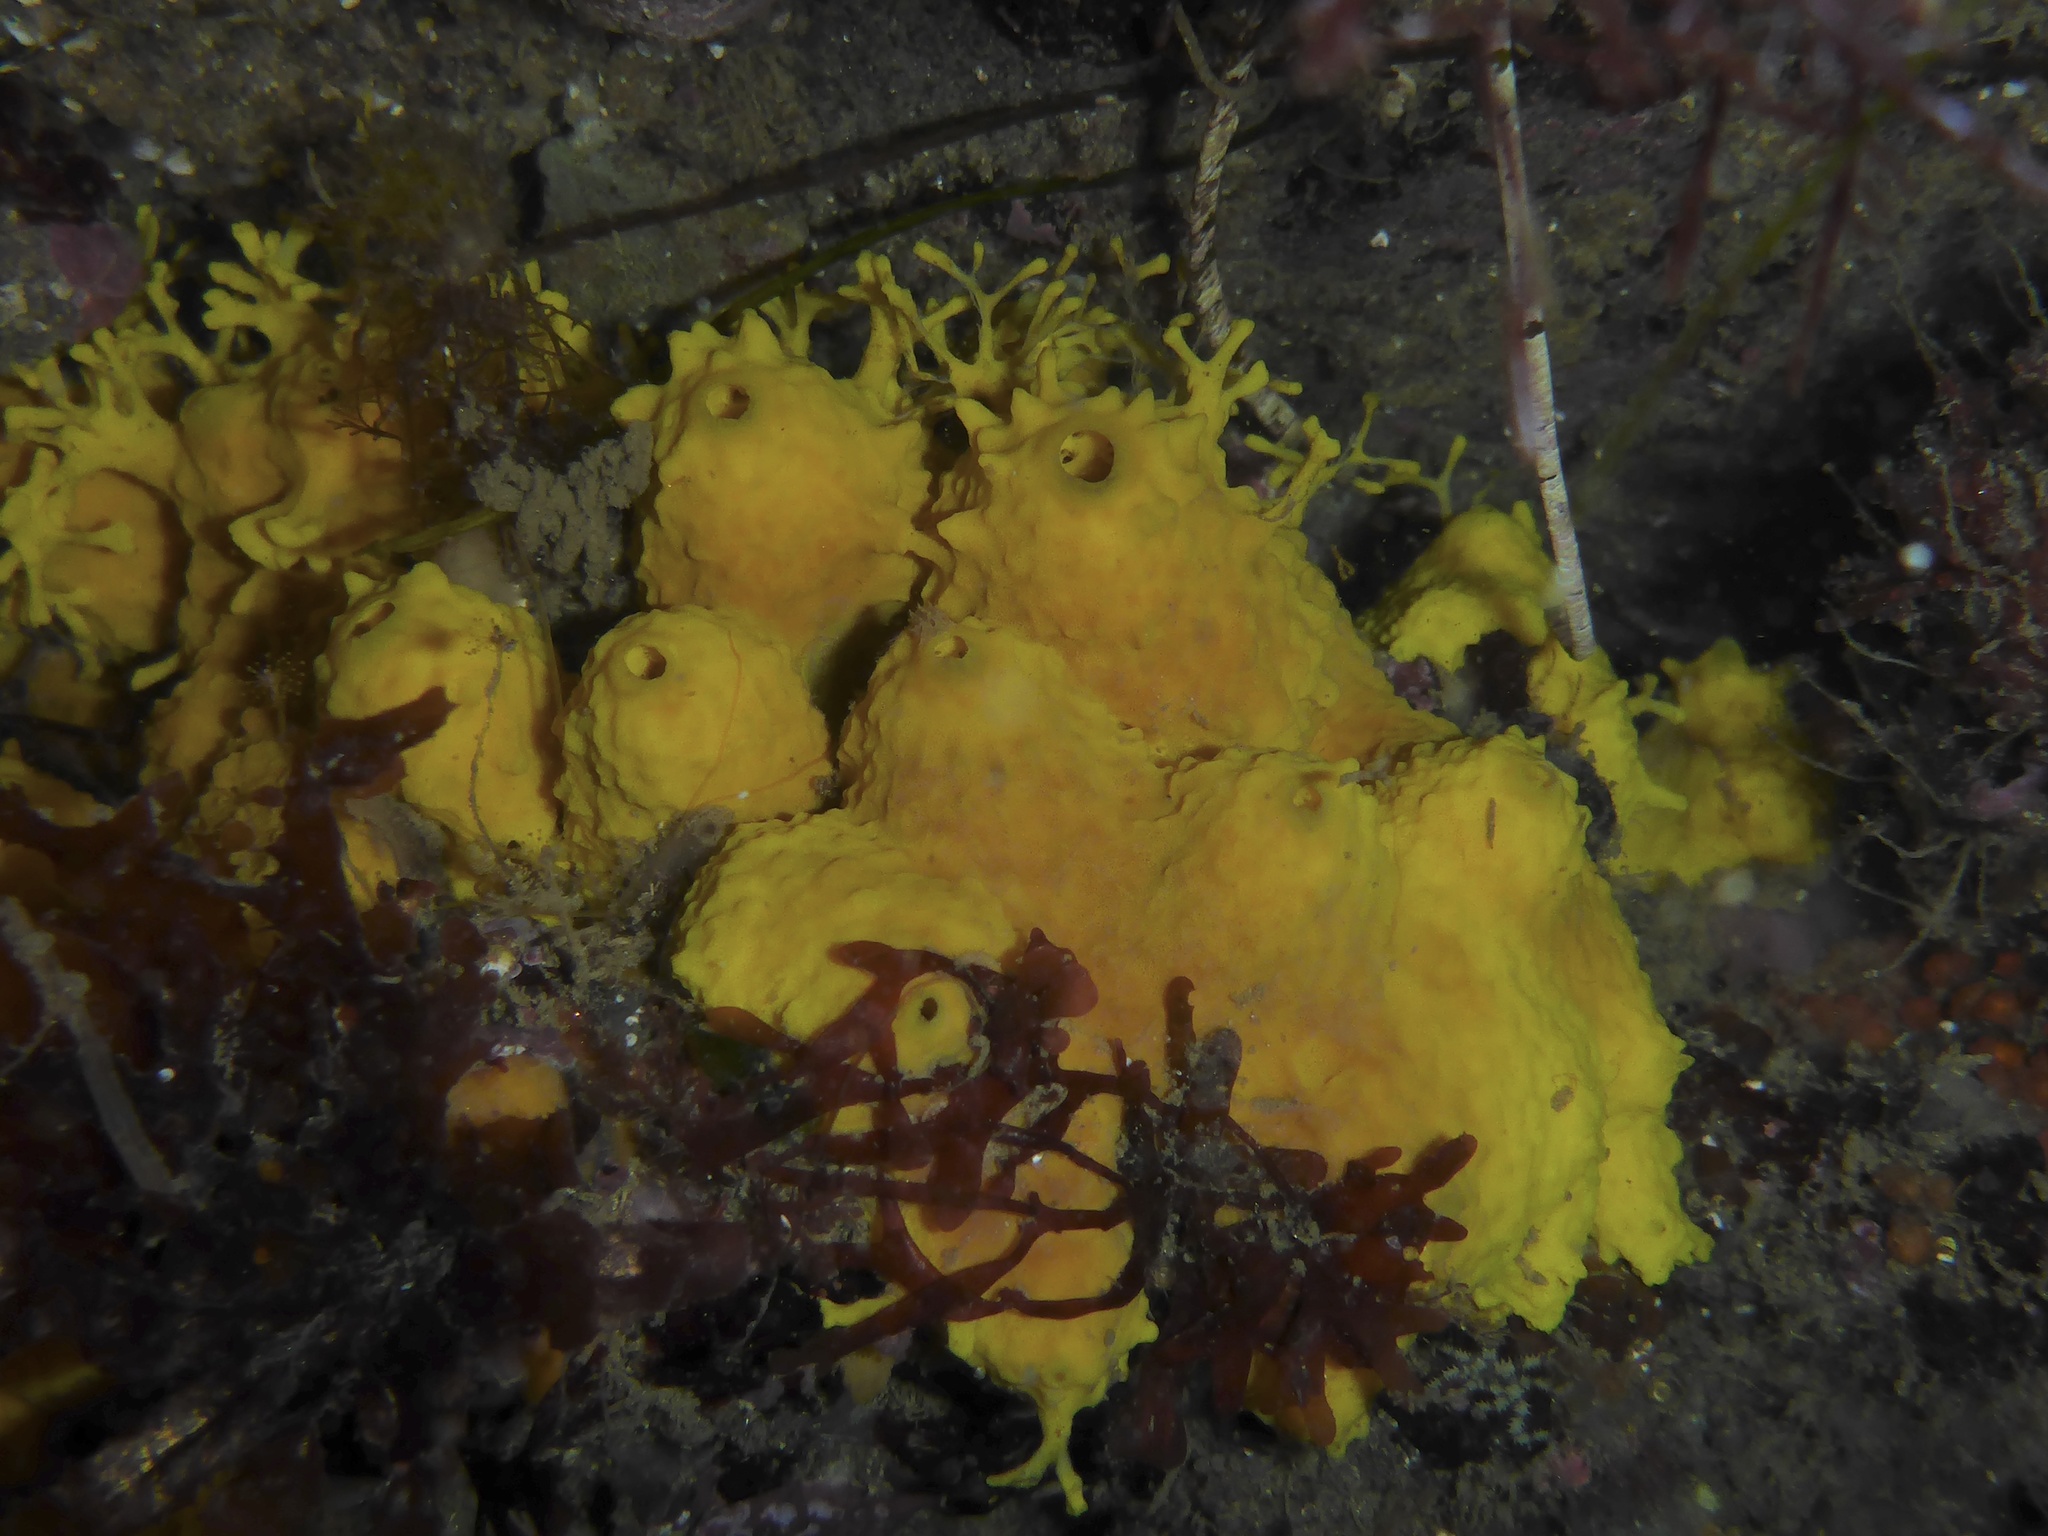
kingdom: Animalia
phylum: Porifera
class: Demospongiae
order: Verongiida
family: Aplysinidae
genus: Aiolochroia
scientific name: Aiolochroia thiona
